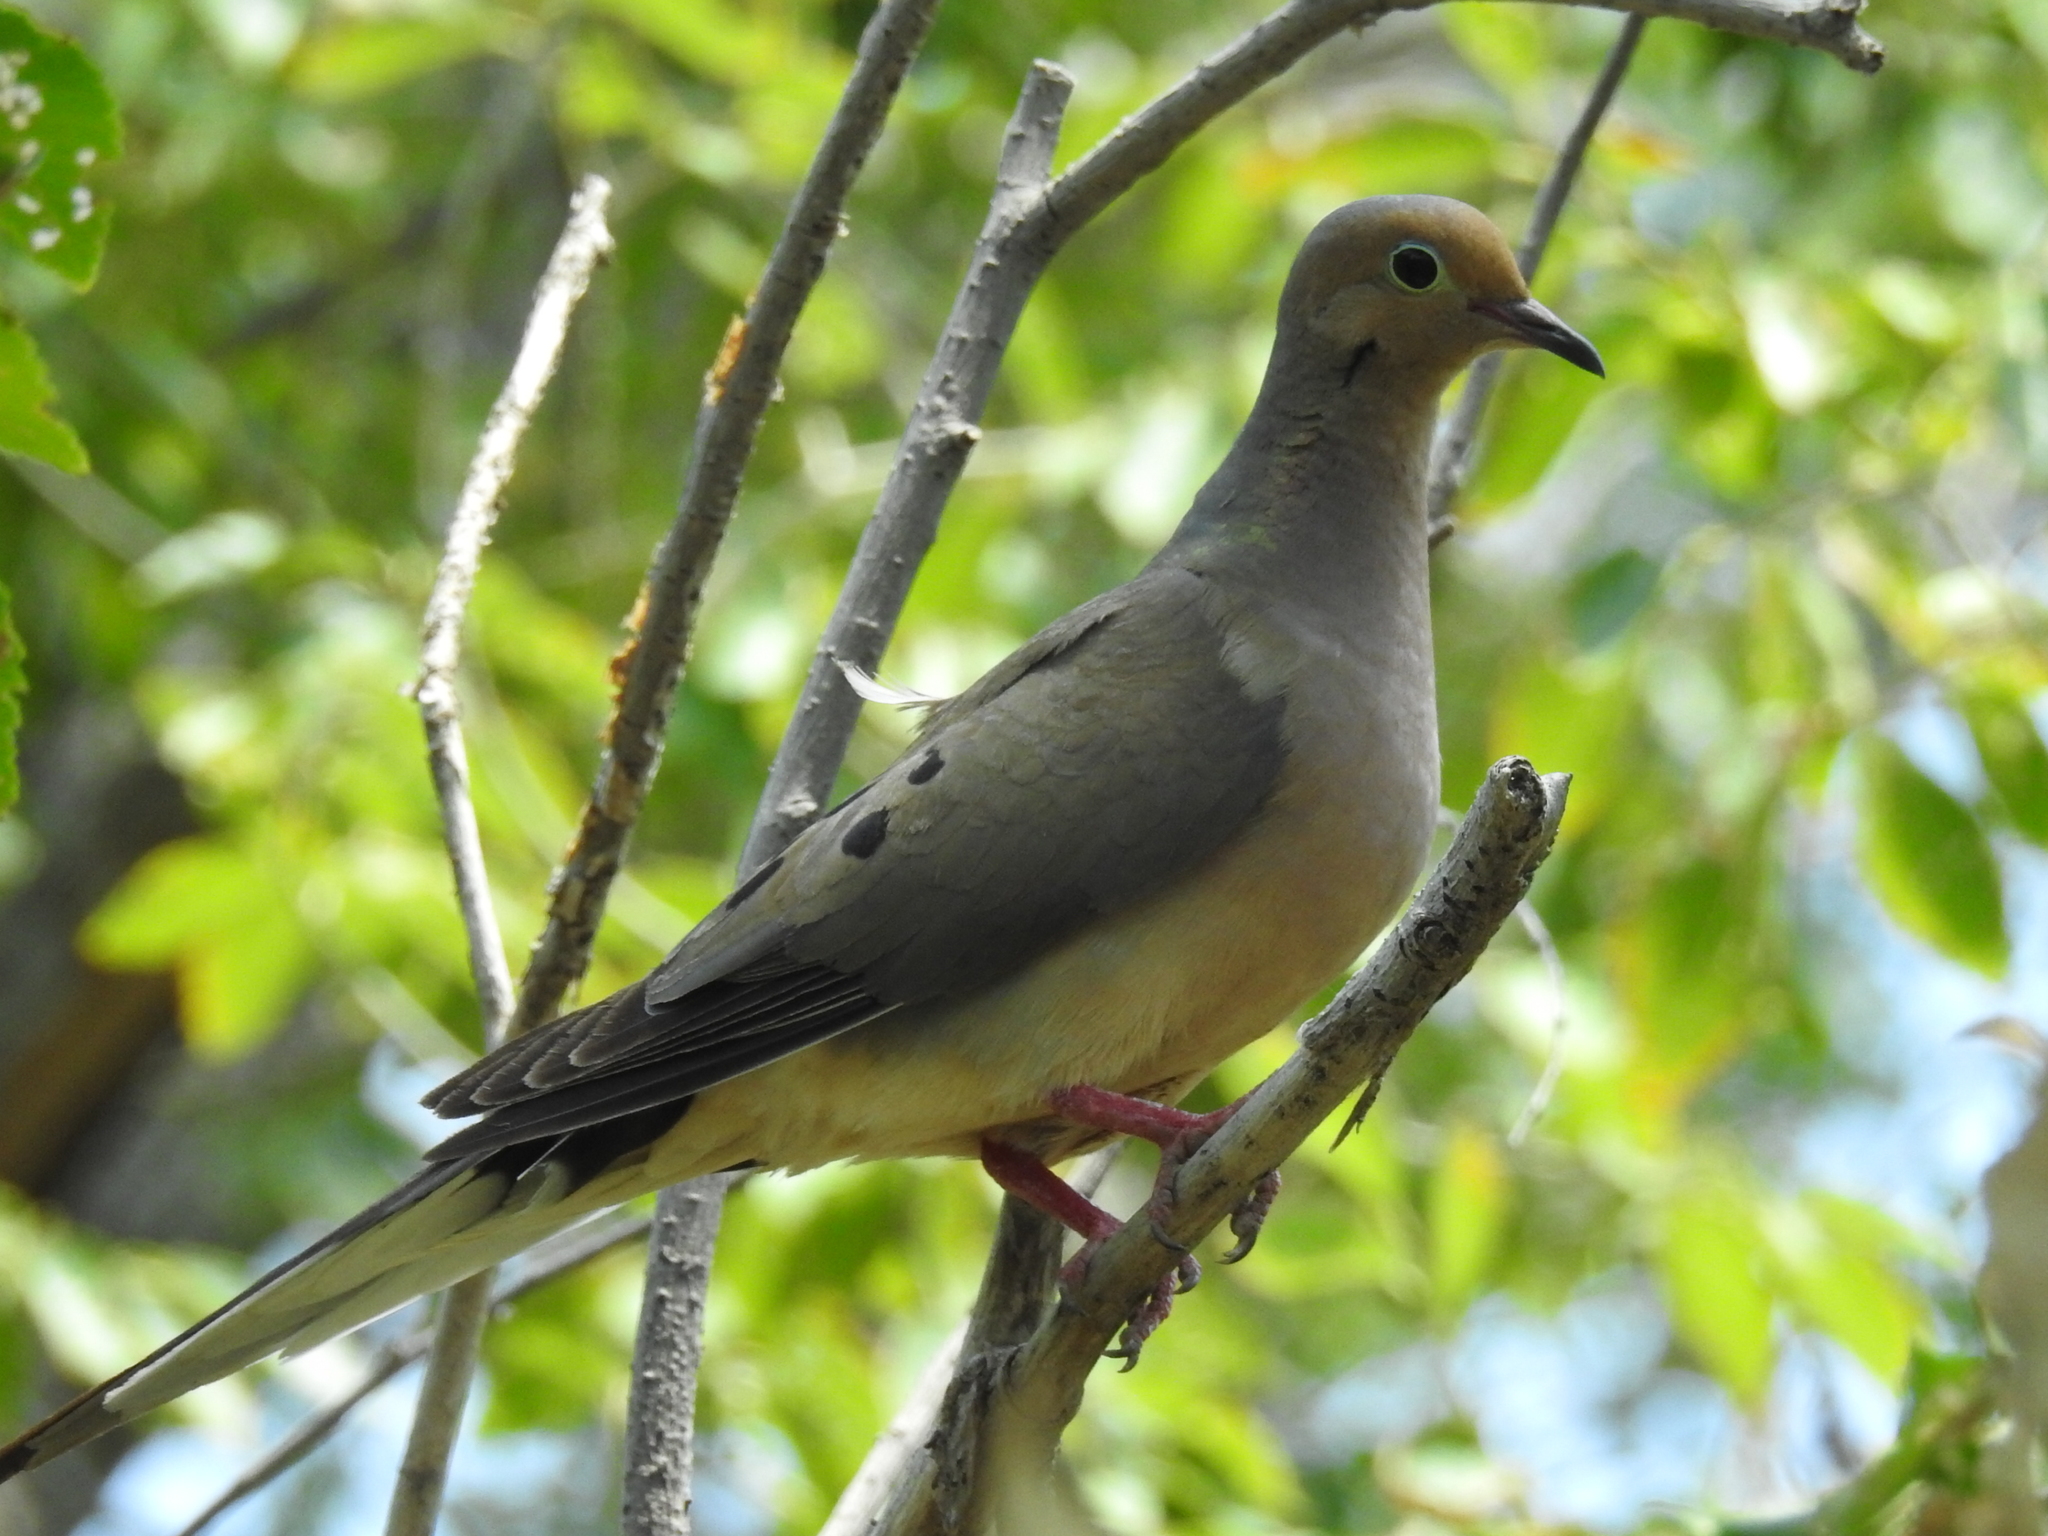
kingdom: Animalia
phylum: Chordata
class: Aves
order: Columbiformes
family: Columbidae
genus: Zenaida
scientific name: Zenaida macroura
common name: Mourning dove
